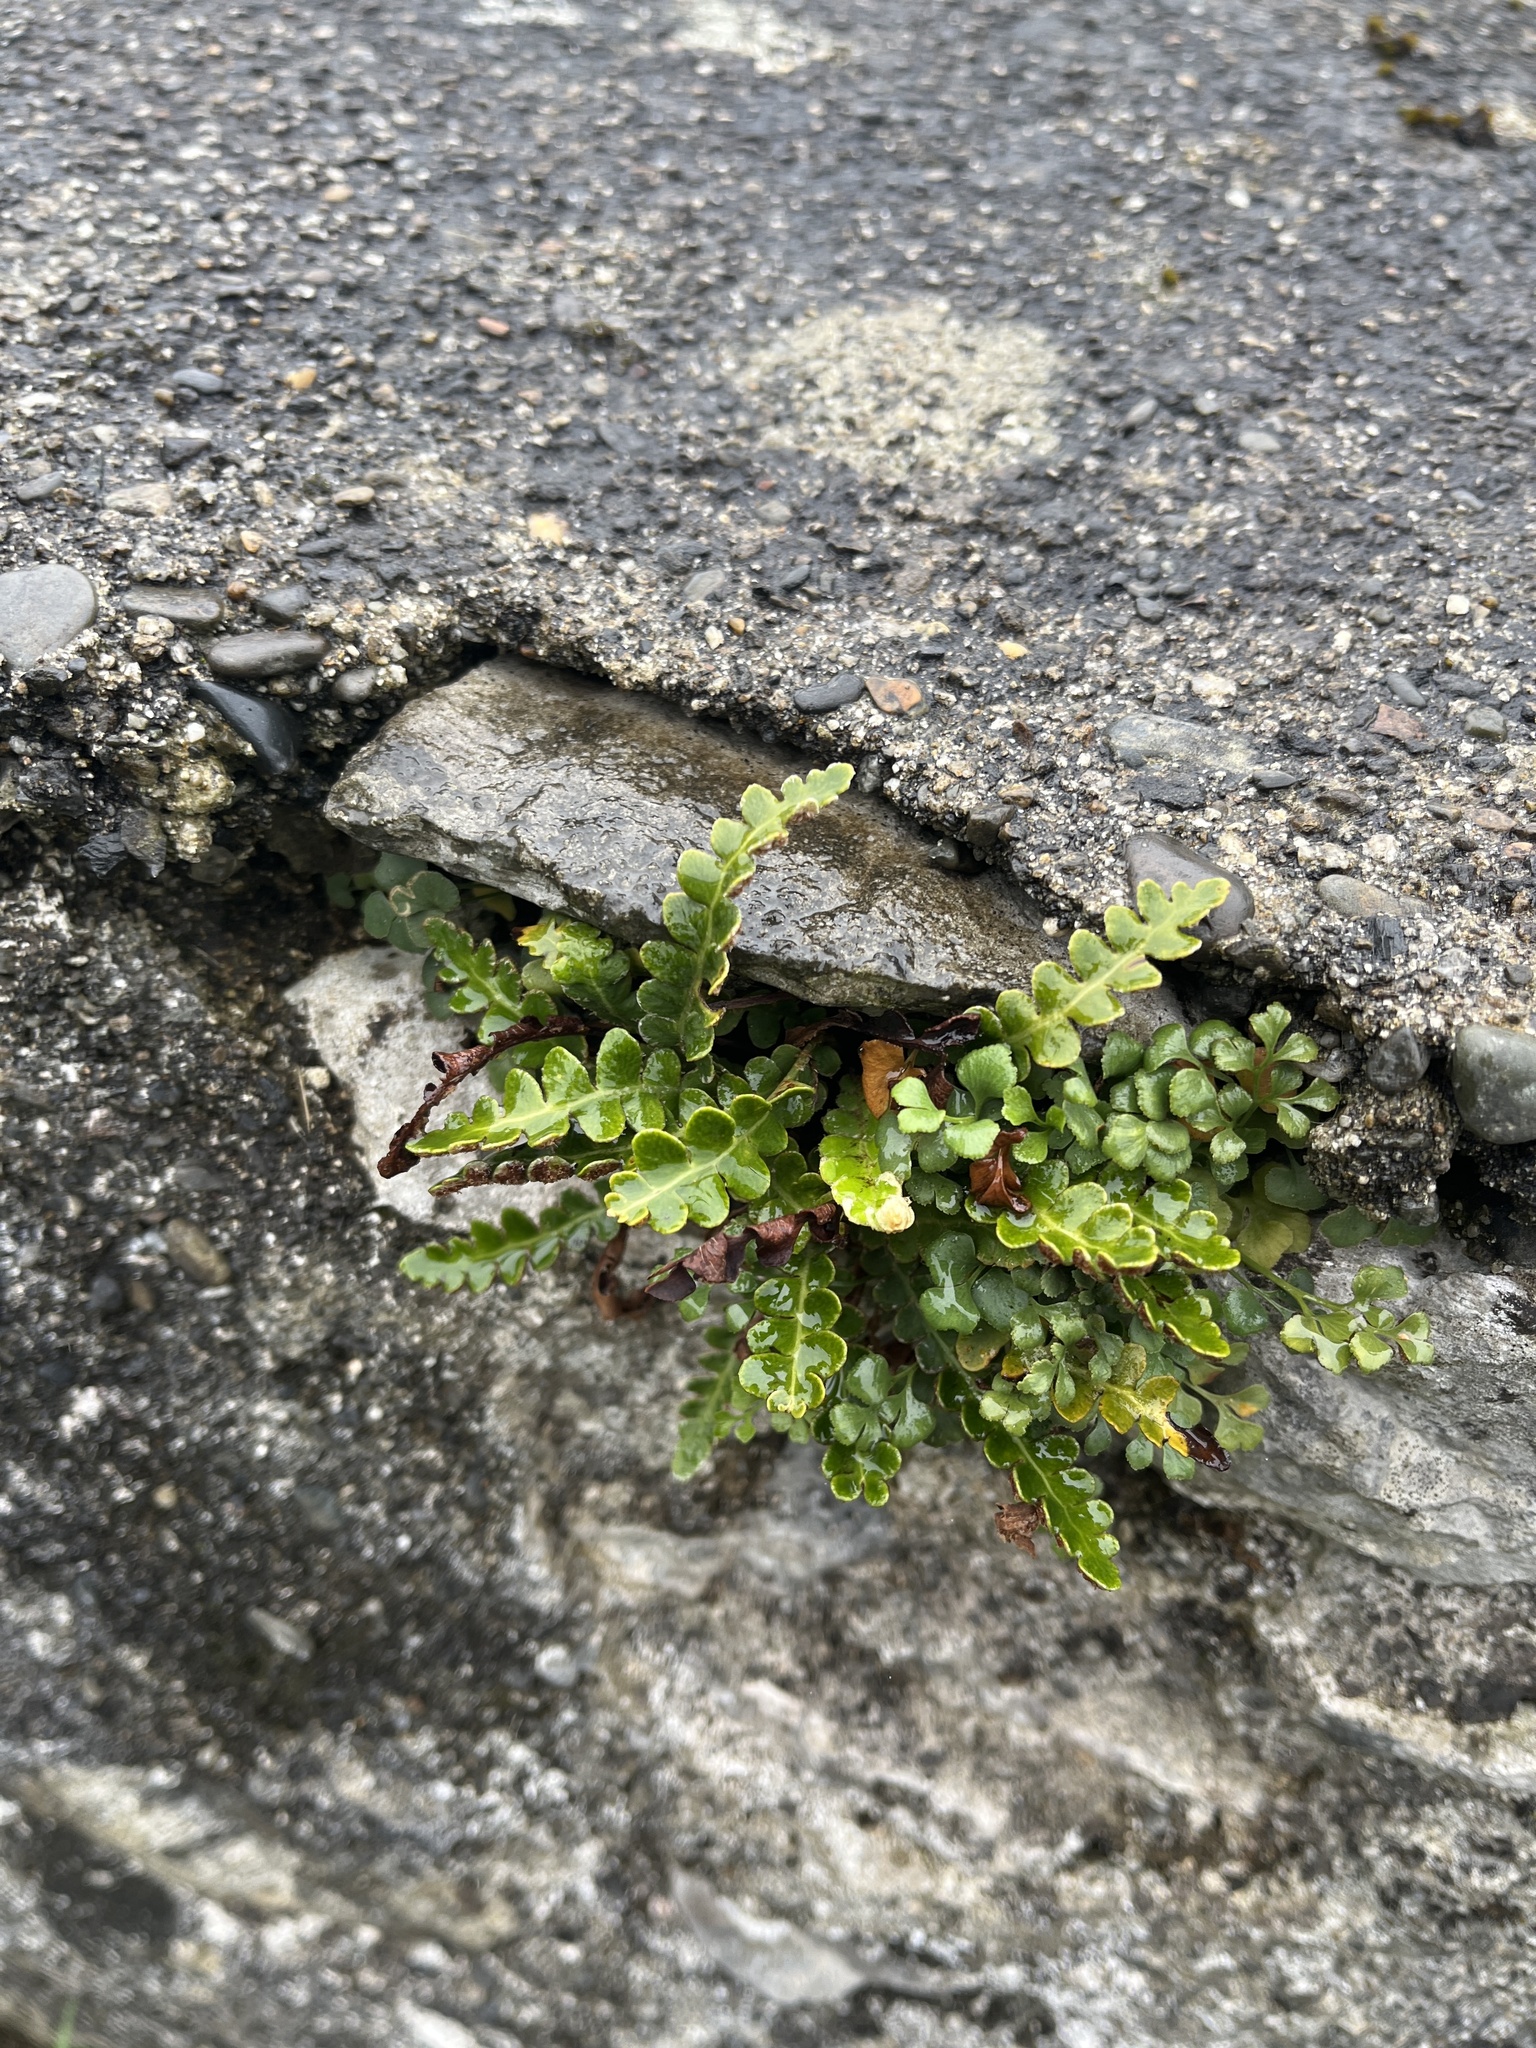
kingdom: Plantae
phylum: Tracheophyta
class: Polypodiopsida
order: Polypodiales
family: Aspleniaceae
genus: Asplenium
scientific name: Asplenium ceterach
